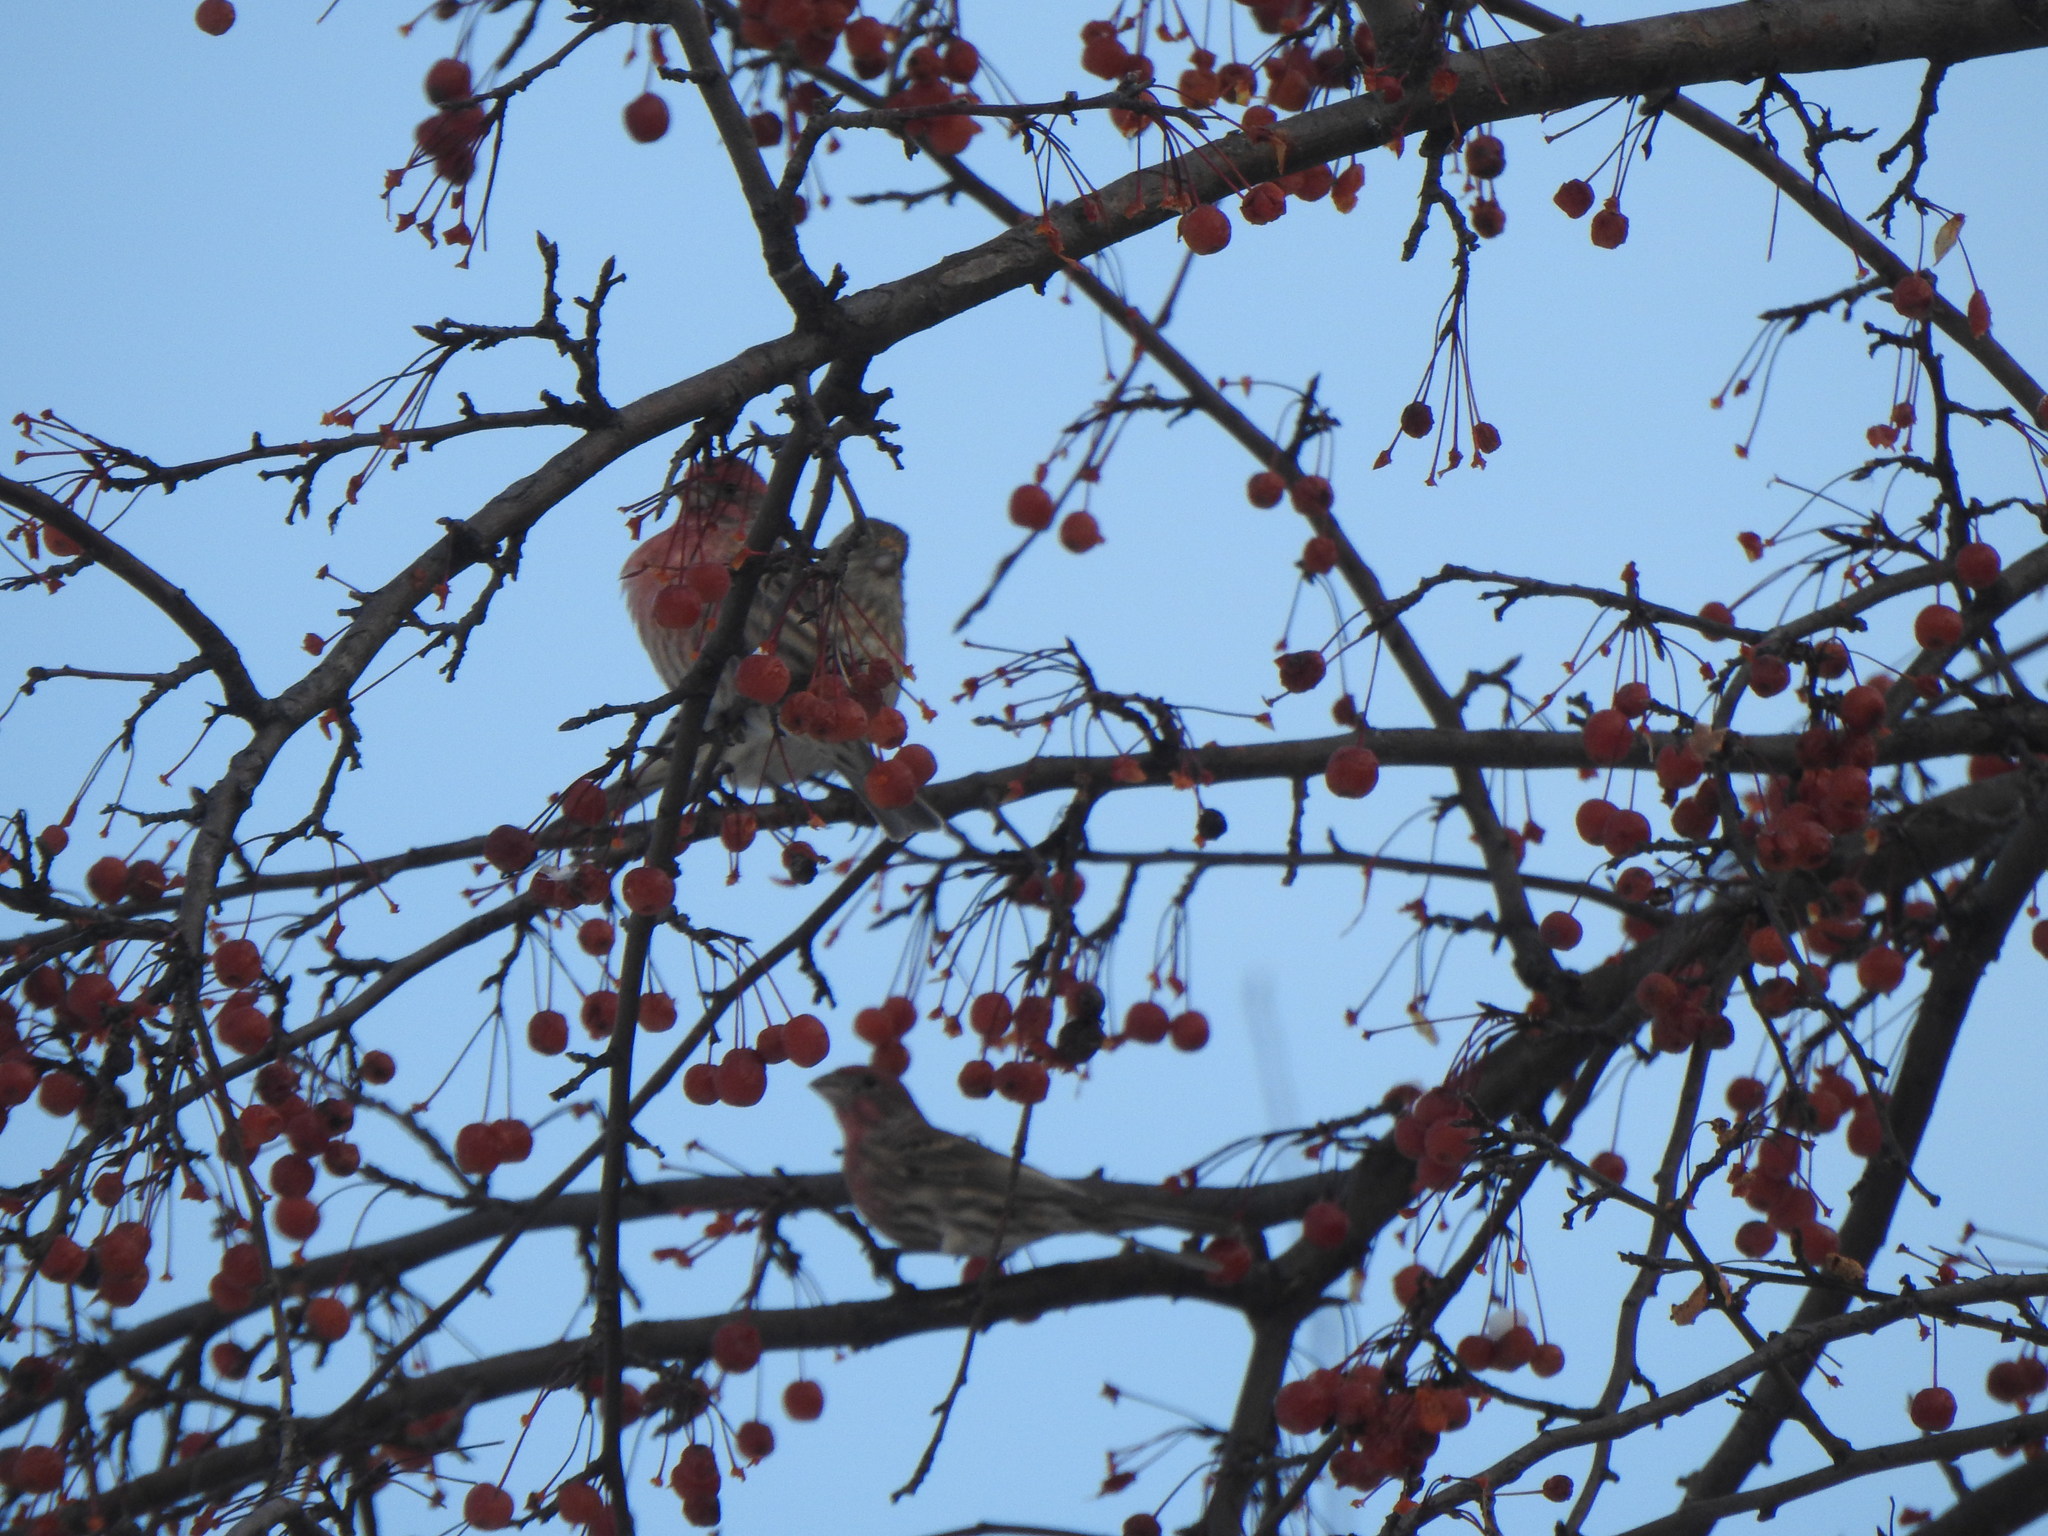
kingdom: Animalia
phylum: Chordata
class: Aves
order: Passeriformes
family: Fringillidae
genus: Haemorhous
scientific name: Haemorhous mexicanus
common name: House finch
